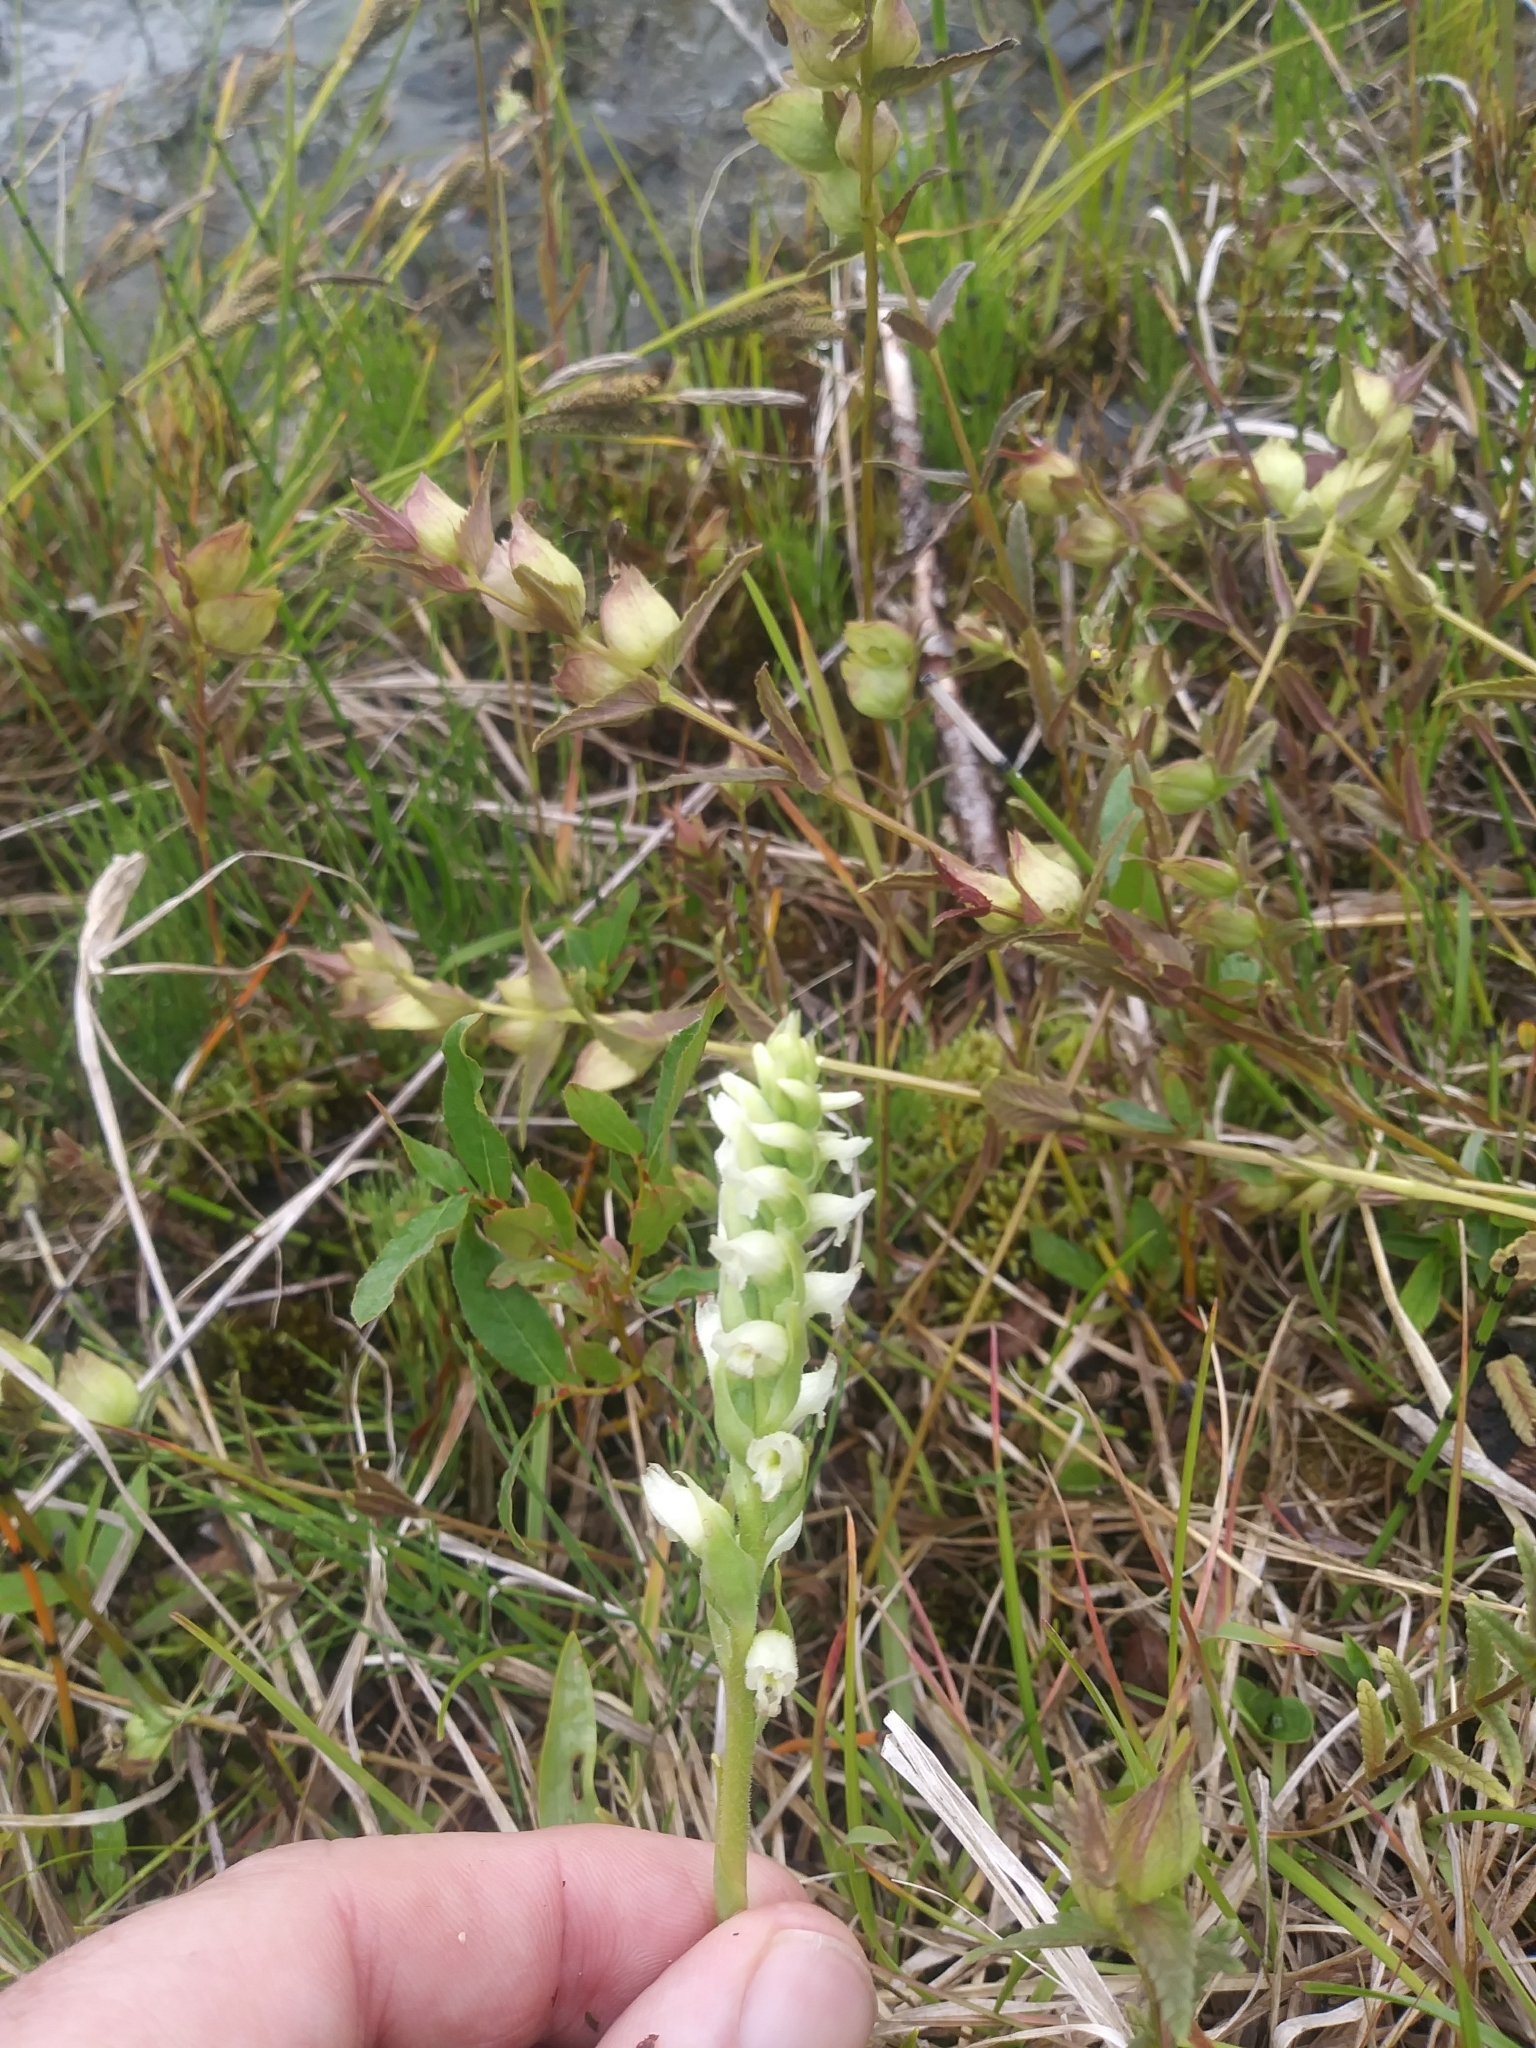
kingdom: Plantae
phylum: Tracheophyta
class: Liliopsida
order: Asparagales
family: Orchidaceae
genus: Spiranthes
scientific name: Spiranthes romanzoffiana
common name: Irish lady's-tresses
